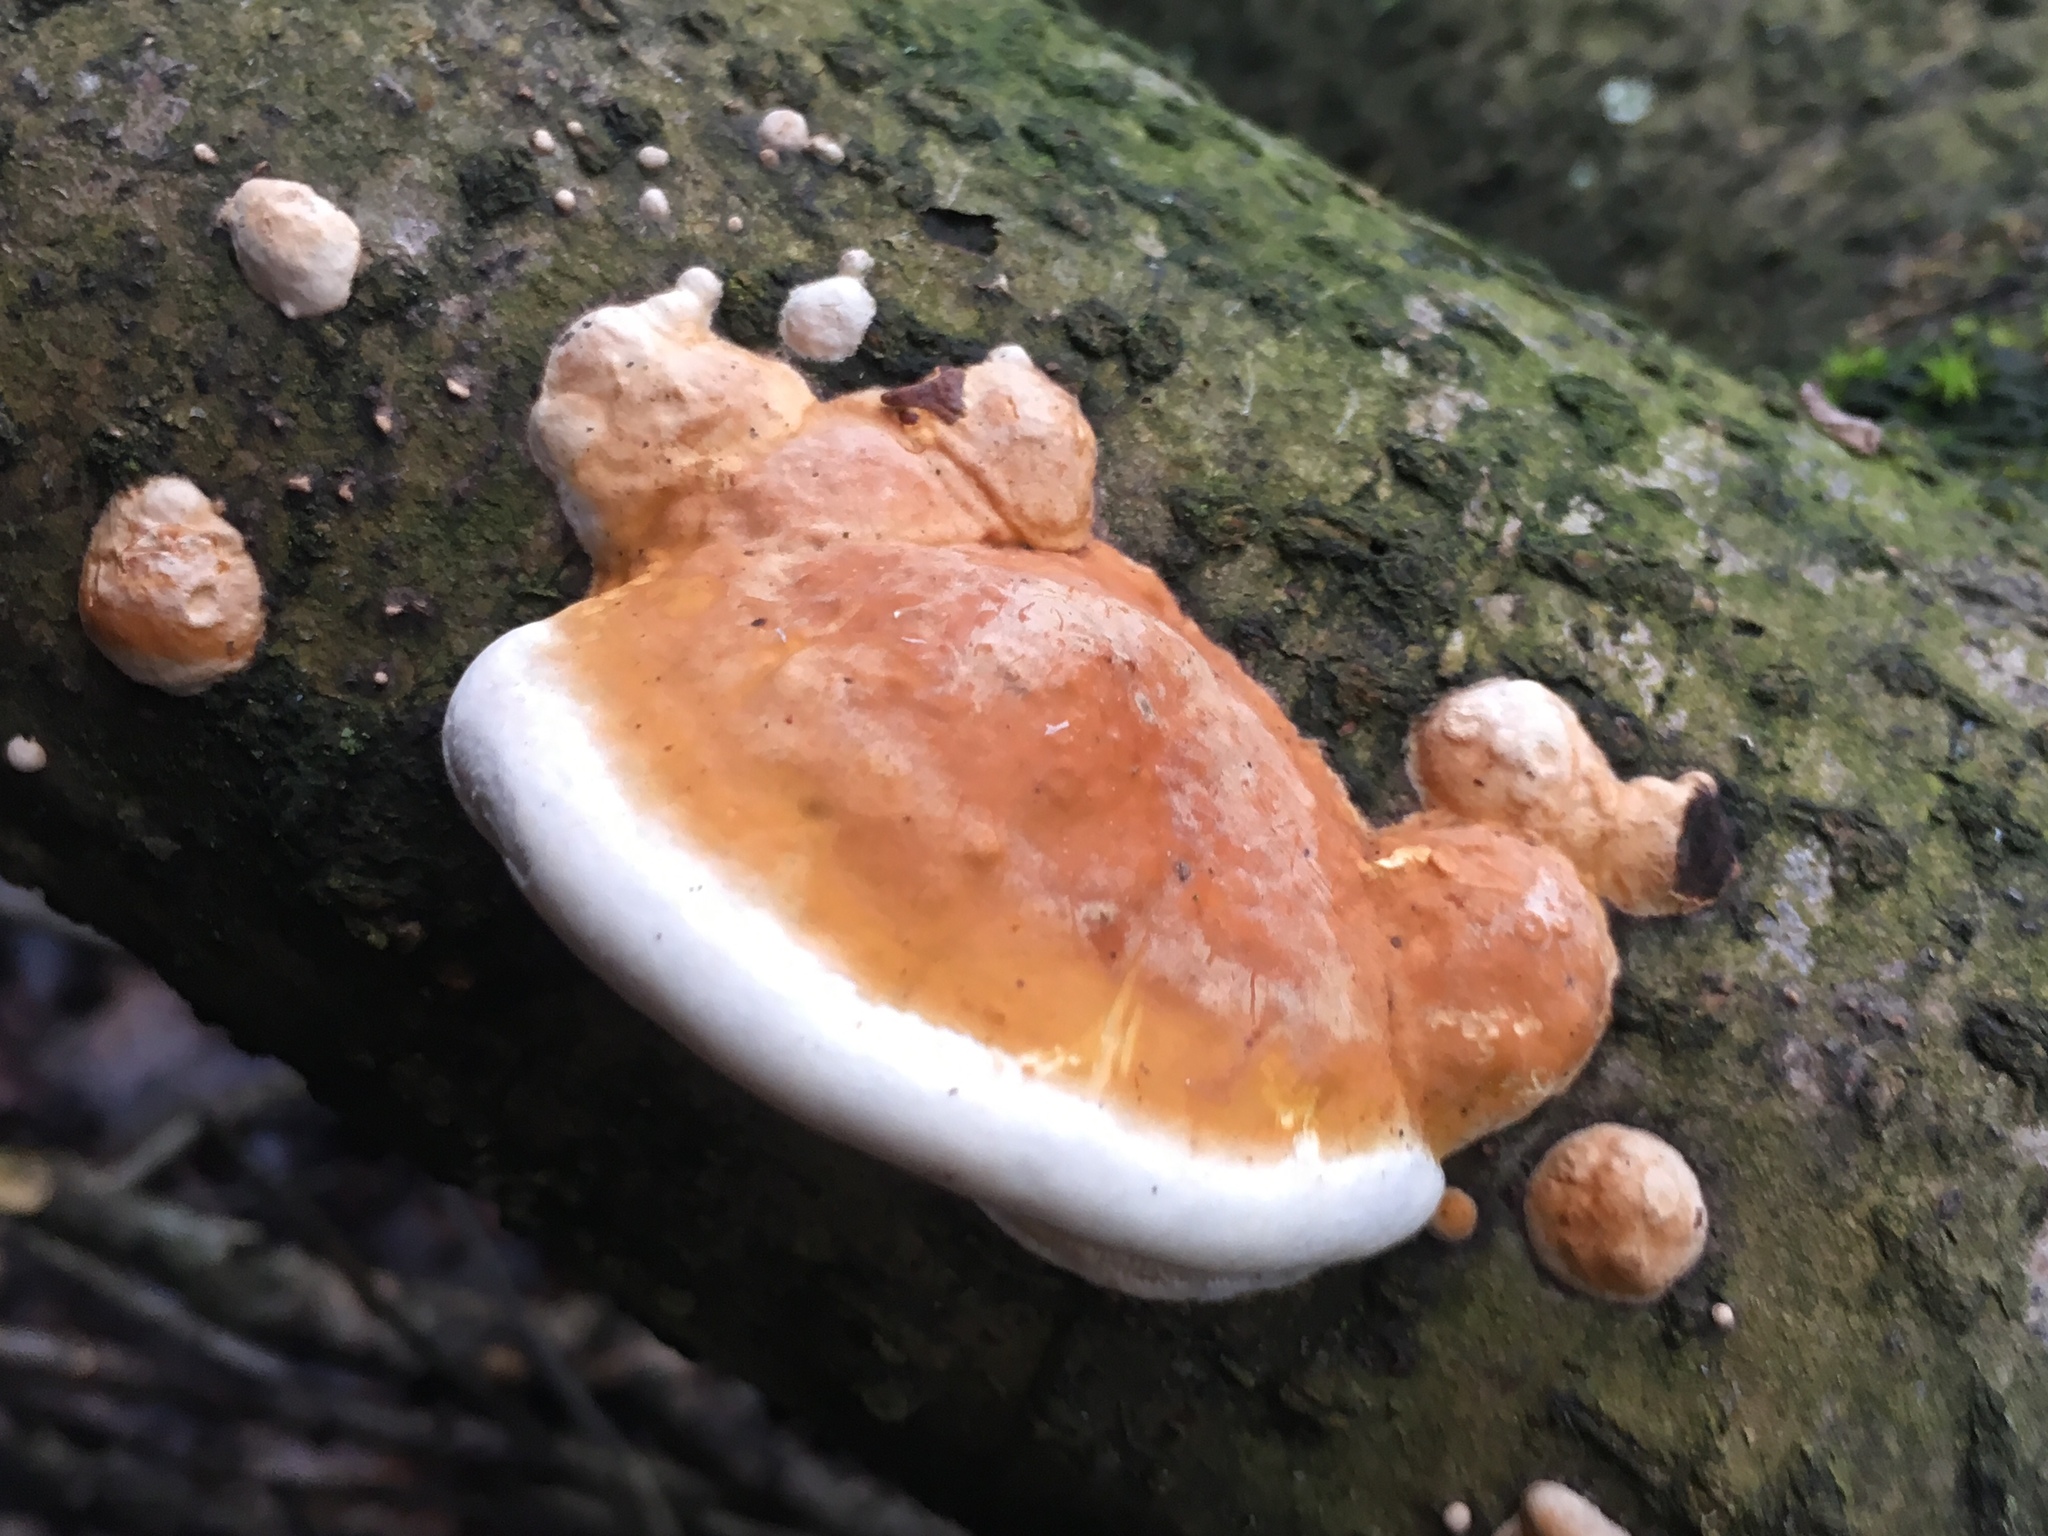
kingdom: Fungi
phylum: Basidiomycota
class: Agaricomycetes
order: Polyporales
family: Fomitopsidaceae
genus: Fomitopsis
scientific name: Fomitopsis pinicola
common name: Red-belted bracket
